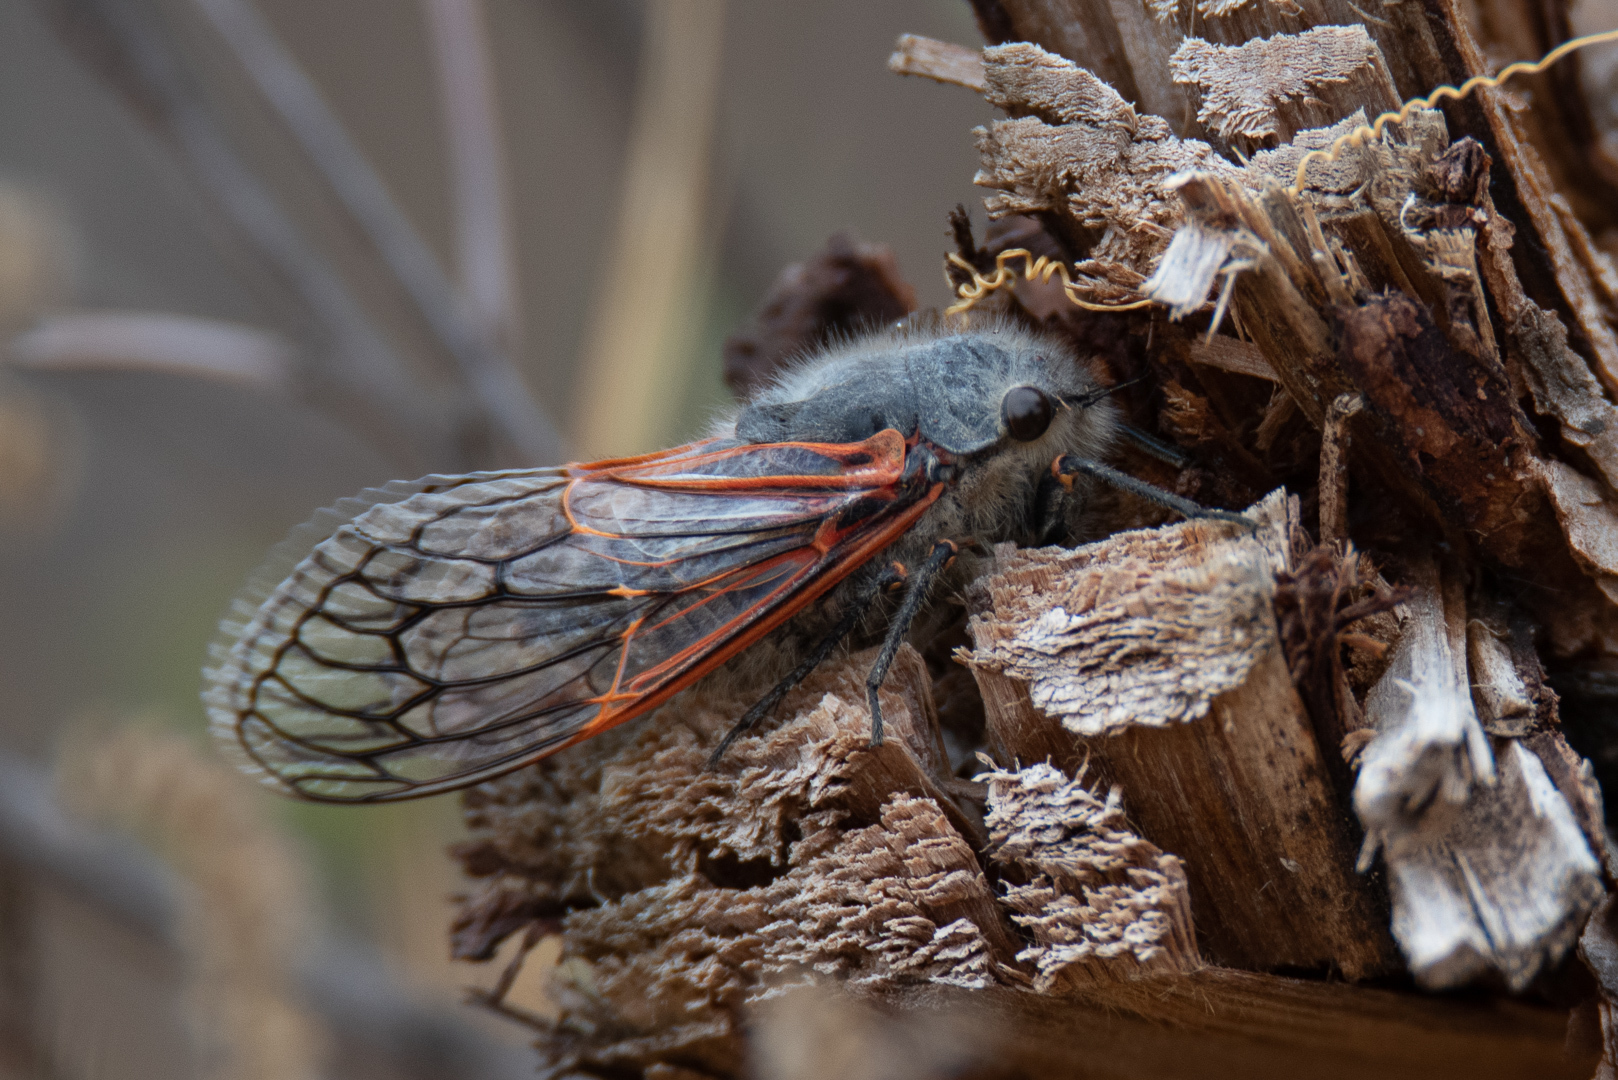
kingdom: Animalia
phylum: Arthropoda
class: Insecta
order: Hemiptera
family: Cicadidae
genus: Tettigades
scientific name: Tettigades chilensis
